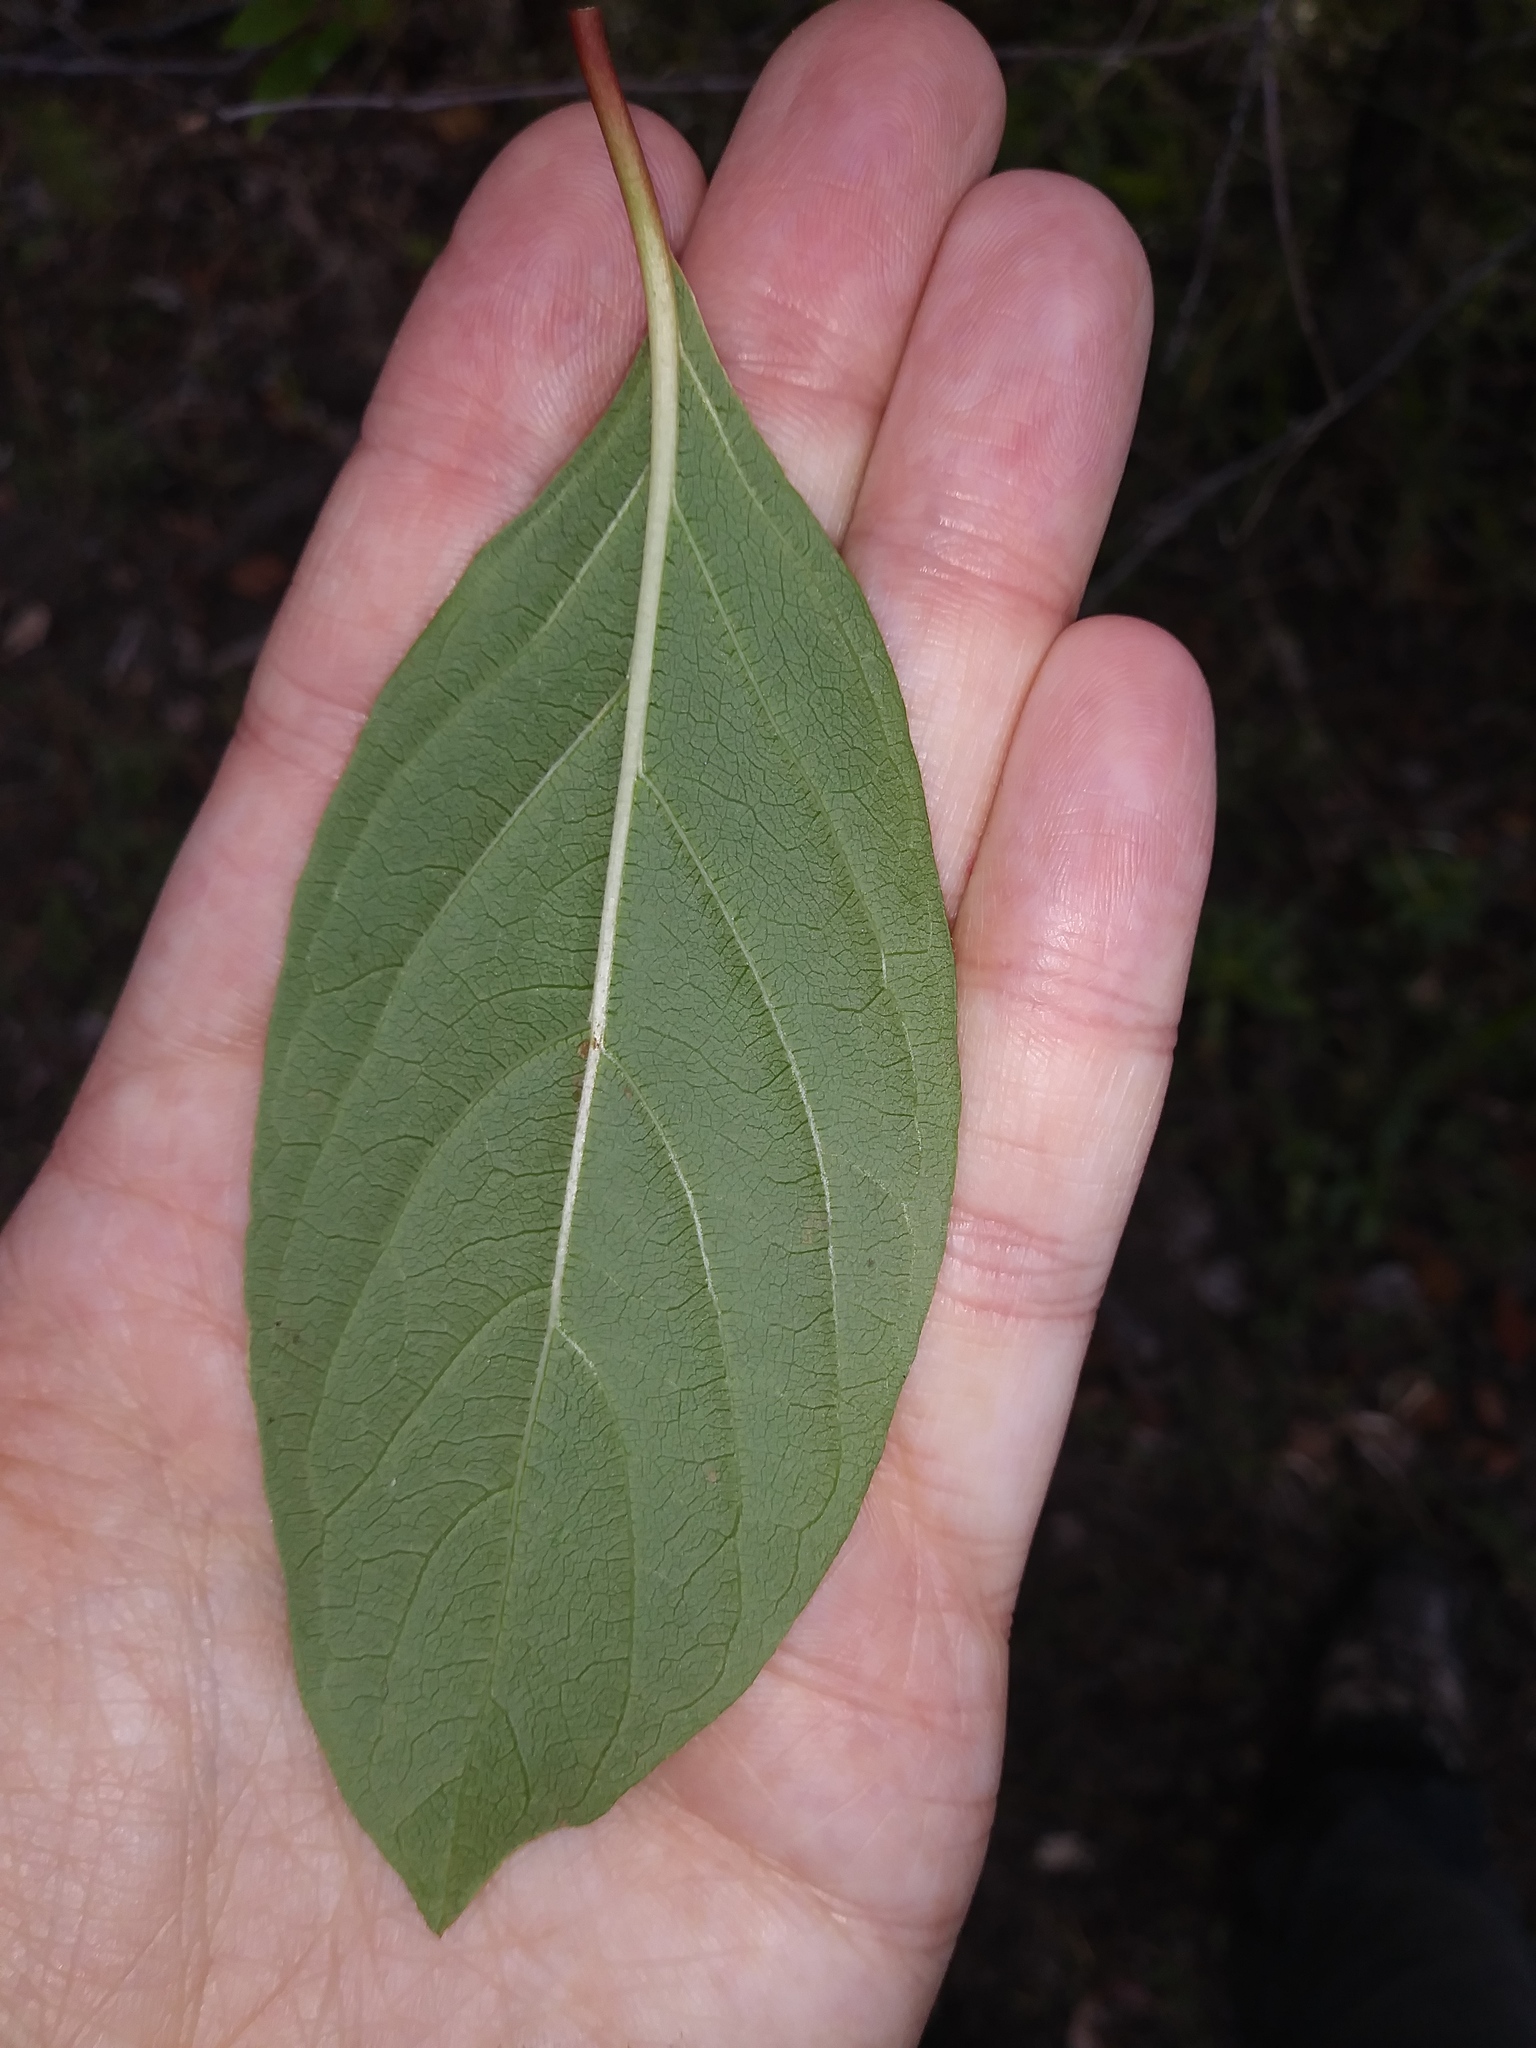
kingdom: Plantae
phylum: Tracheophyta
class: Magnoliopsida
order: Gentianales
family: Rubiaceae
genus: Cephalanthus
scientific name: Cephalanthus occidentalis
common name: Button-willow
